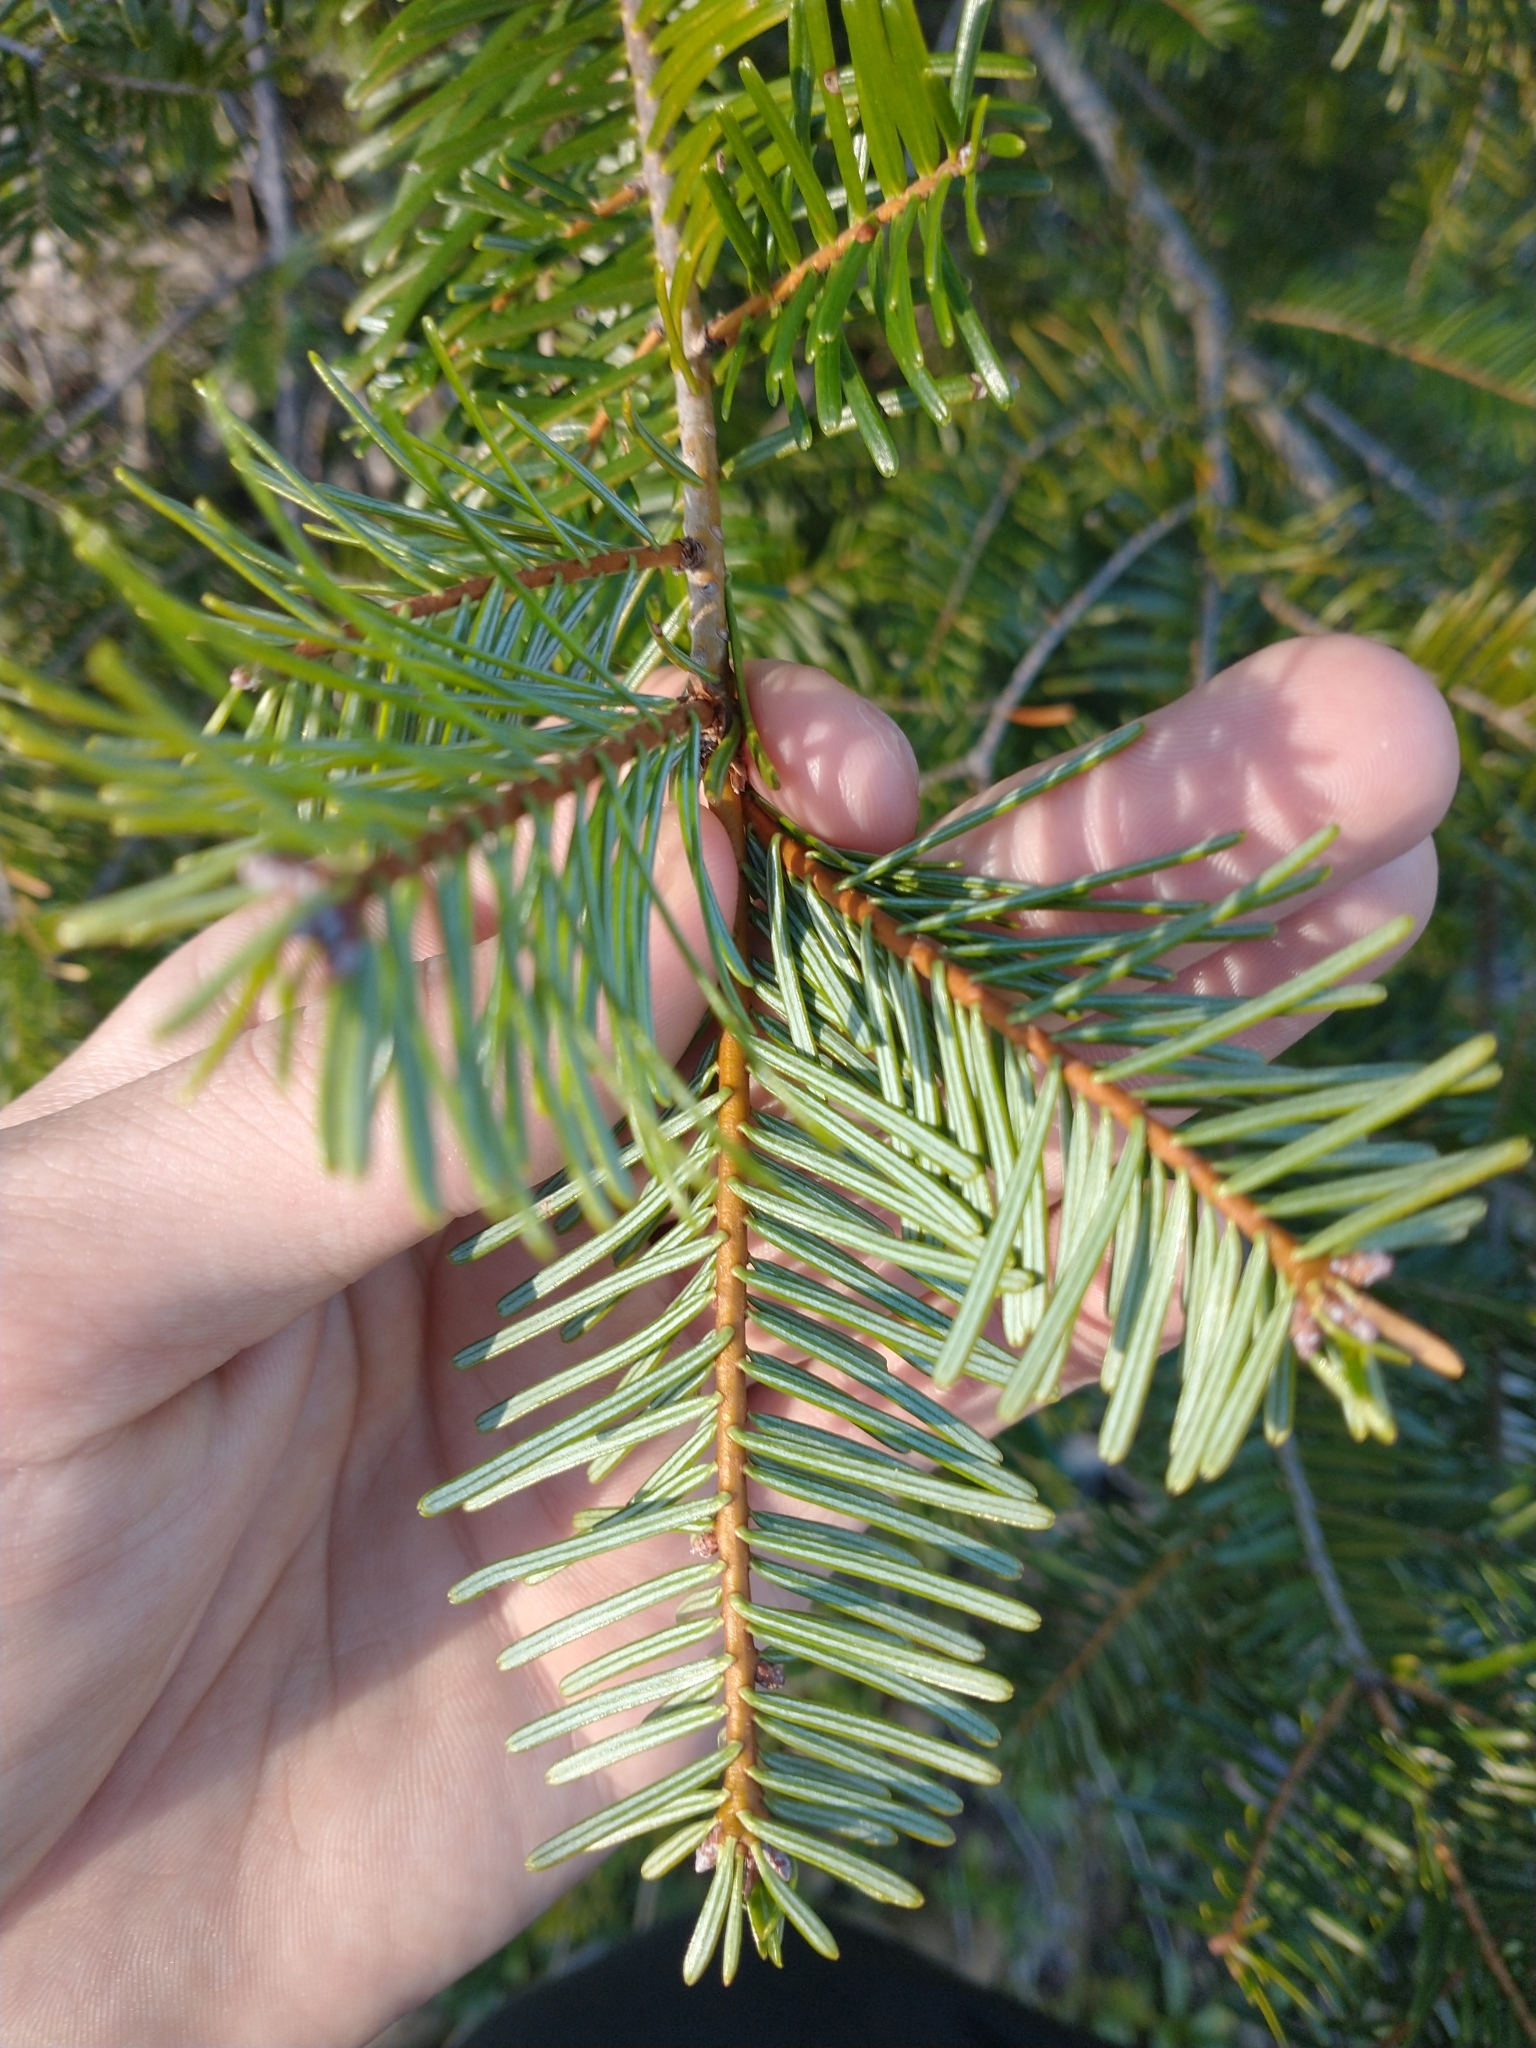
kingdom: Plantae
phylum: Tracheophyta
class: Pinopsida
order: Pinales
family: Pinaceae
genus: Abies
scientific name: Abies grandis
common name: Giant fir
